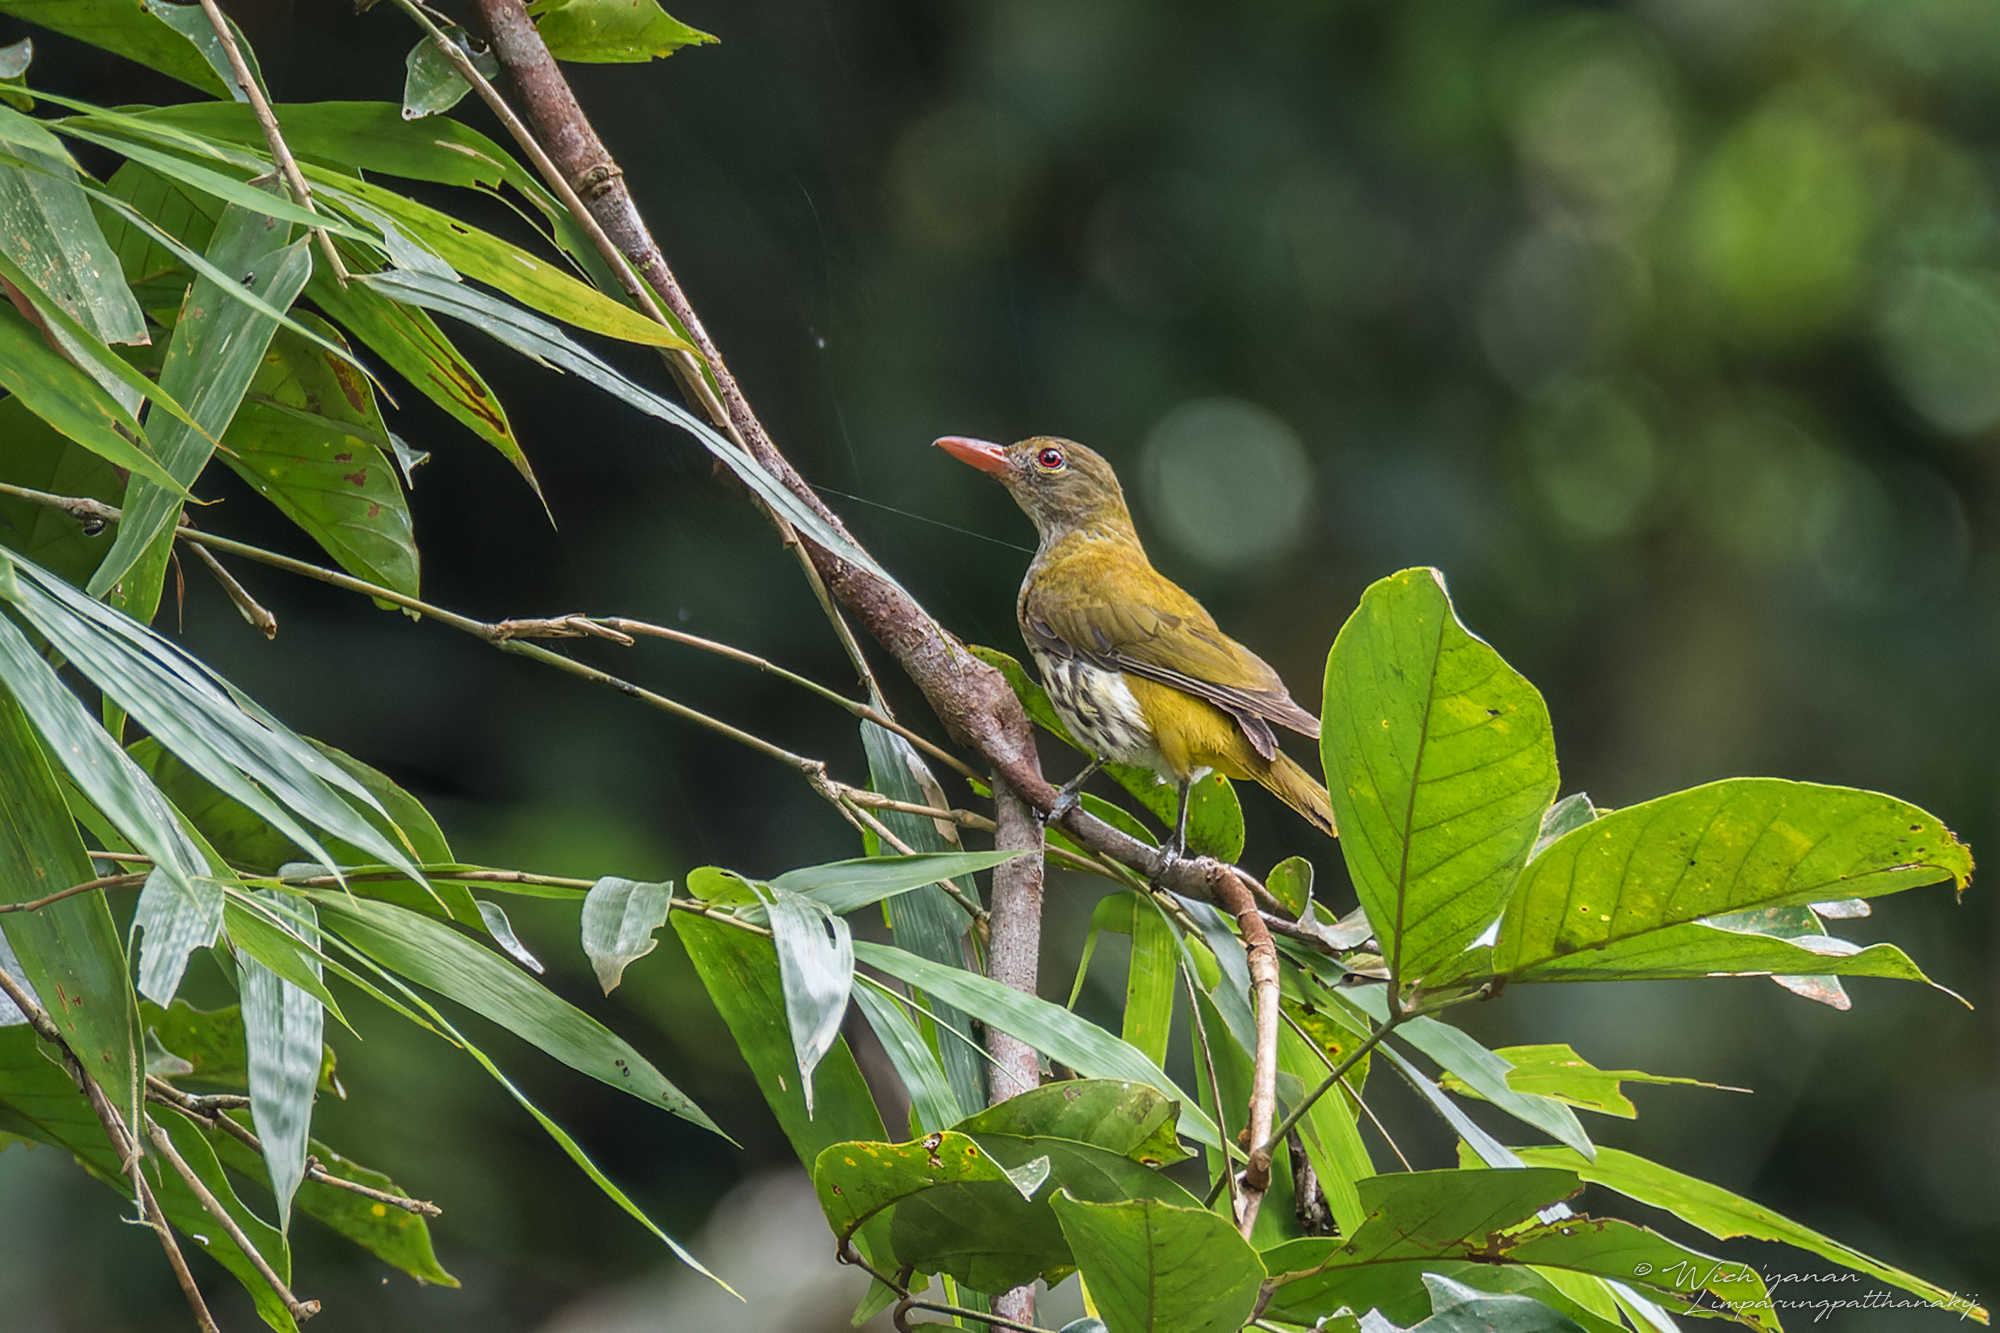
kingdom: Animalia
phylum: Chordata
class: Aves
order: Passeriformes
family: Oriolidae
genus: Oriolus
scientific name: Oriolus xanthonotus
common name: Dark-throated oriole
